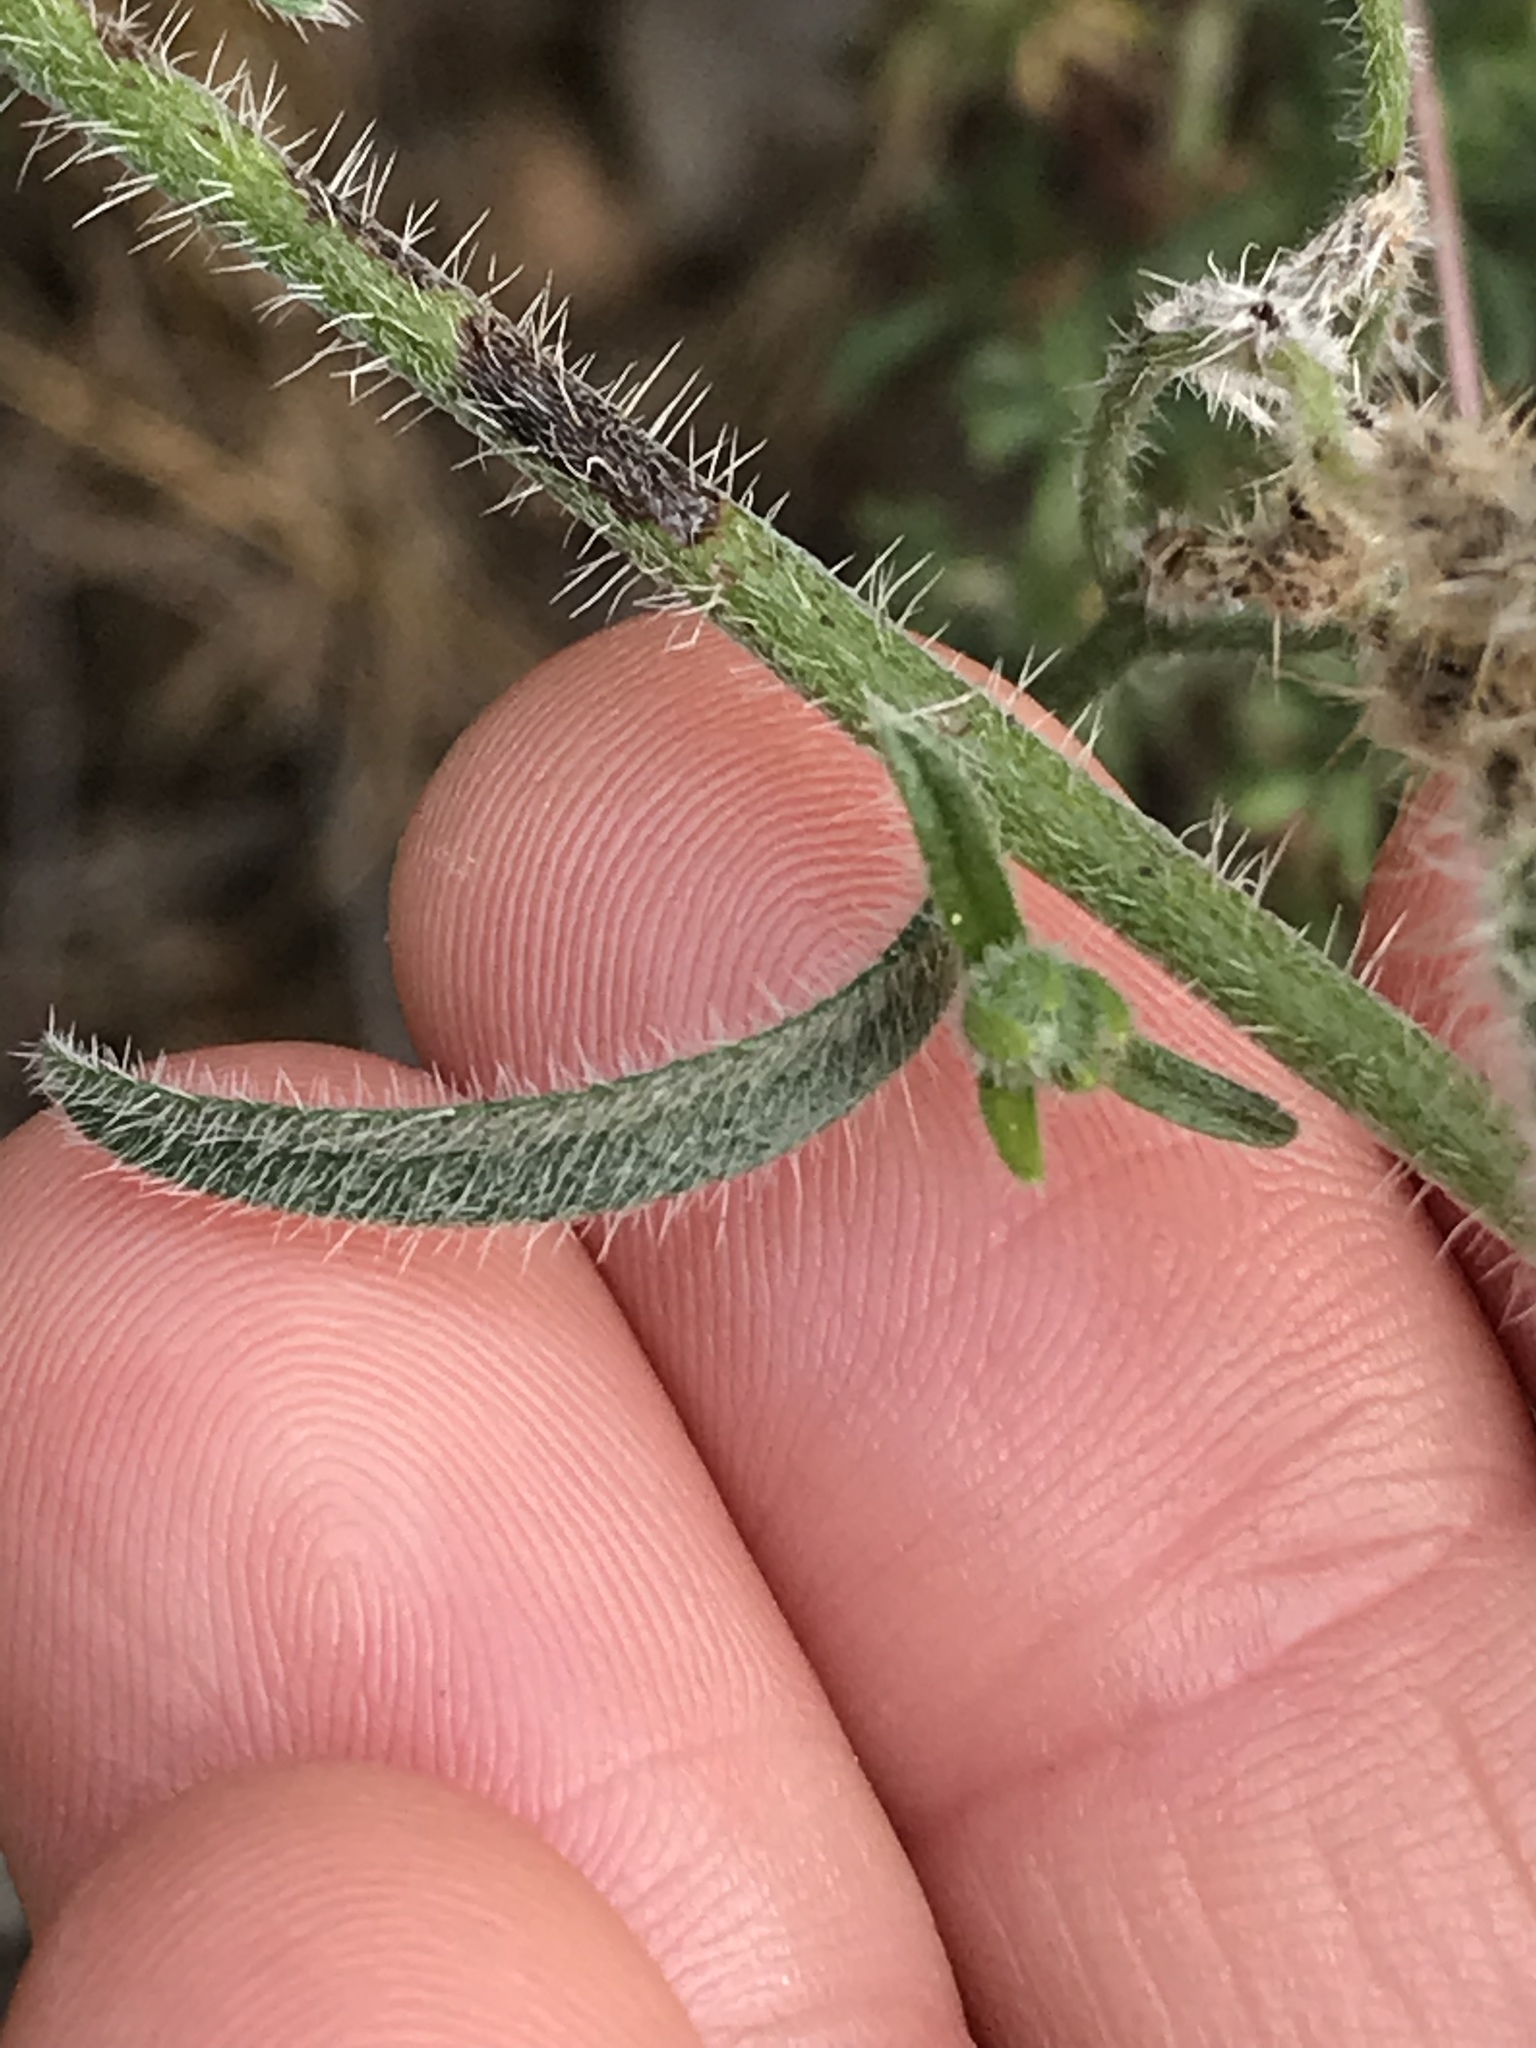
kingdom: Plantae
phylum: Tracheophyta
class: Magnoliopsida
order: Boraginales
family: Boraginaceae
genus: Cryptantha
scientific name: Cryptantha intermedia
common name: Clearwater cryptantha
